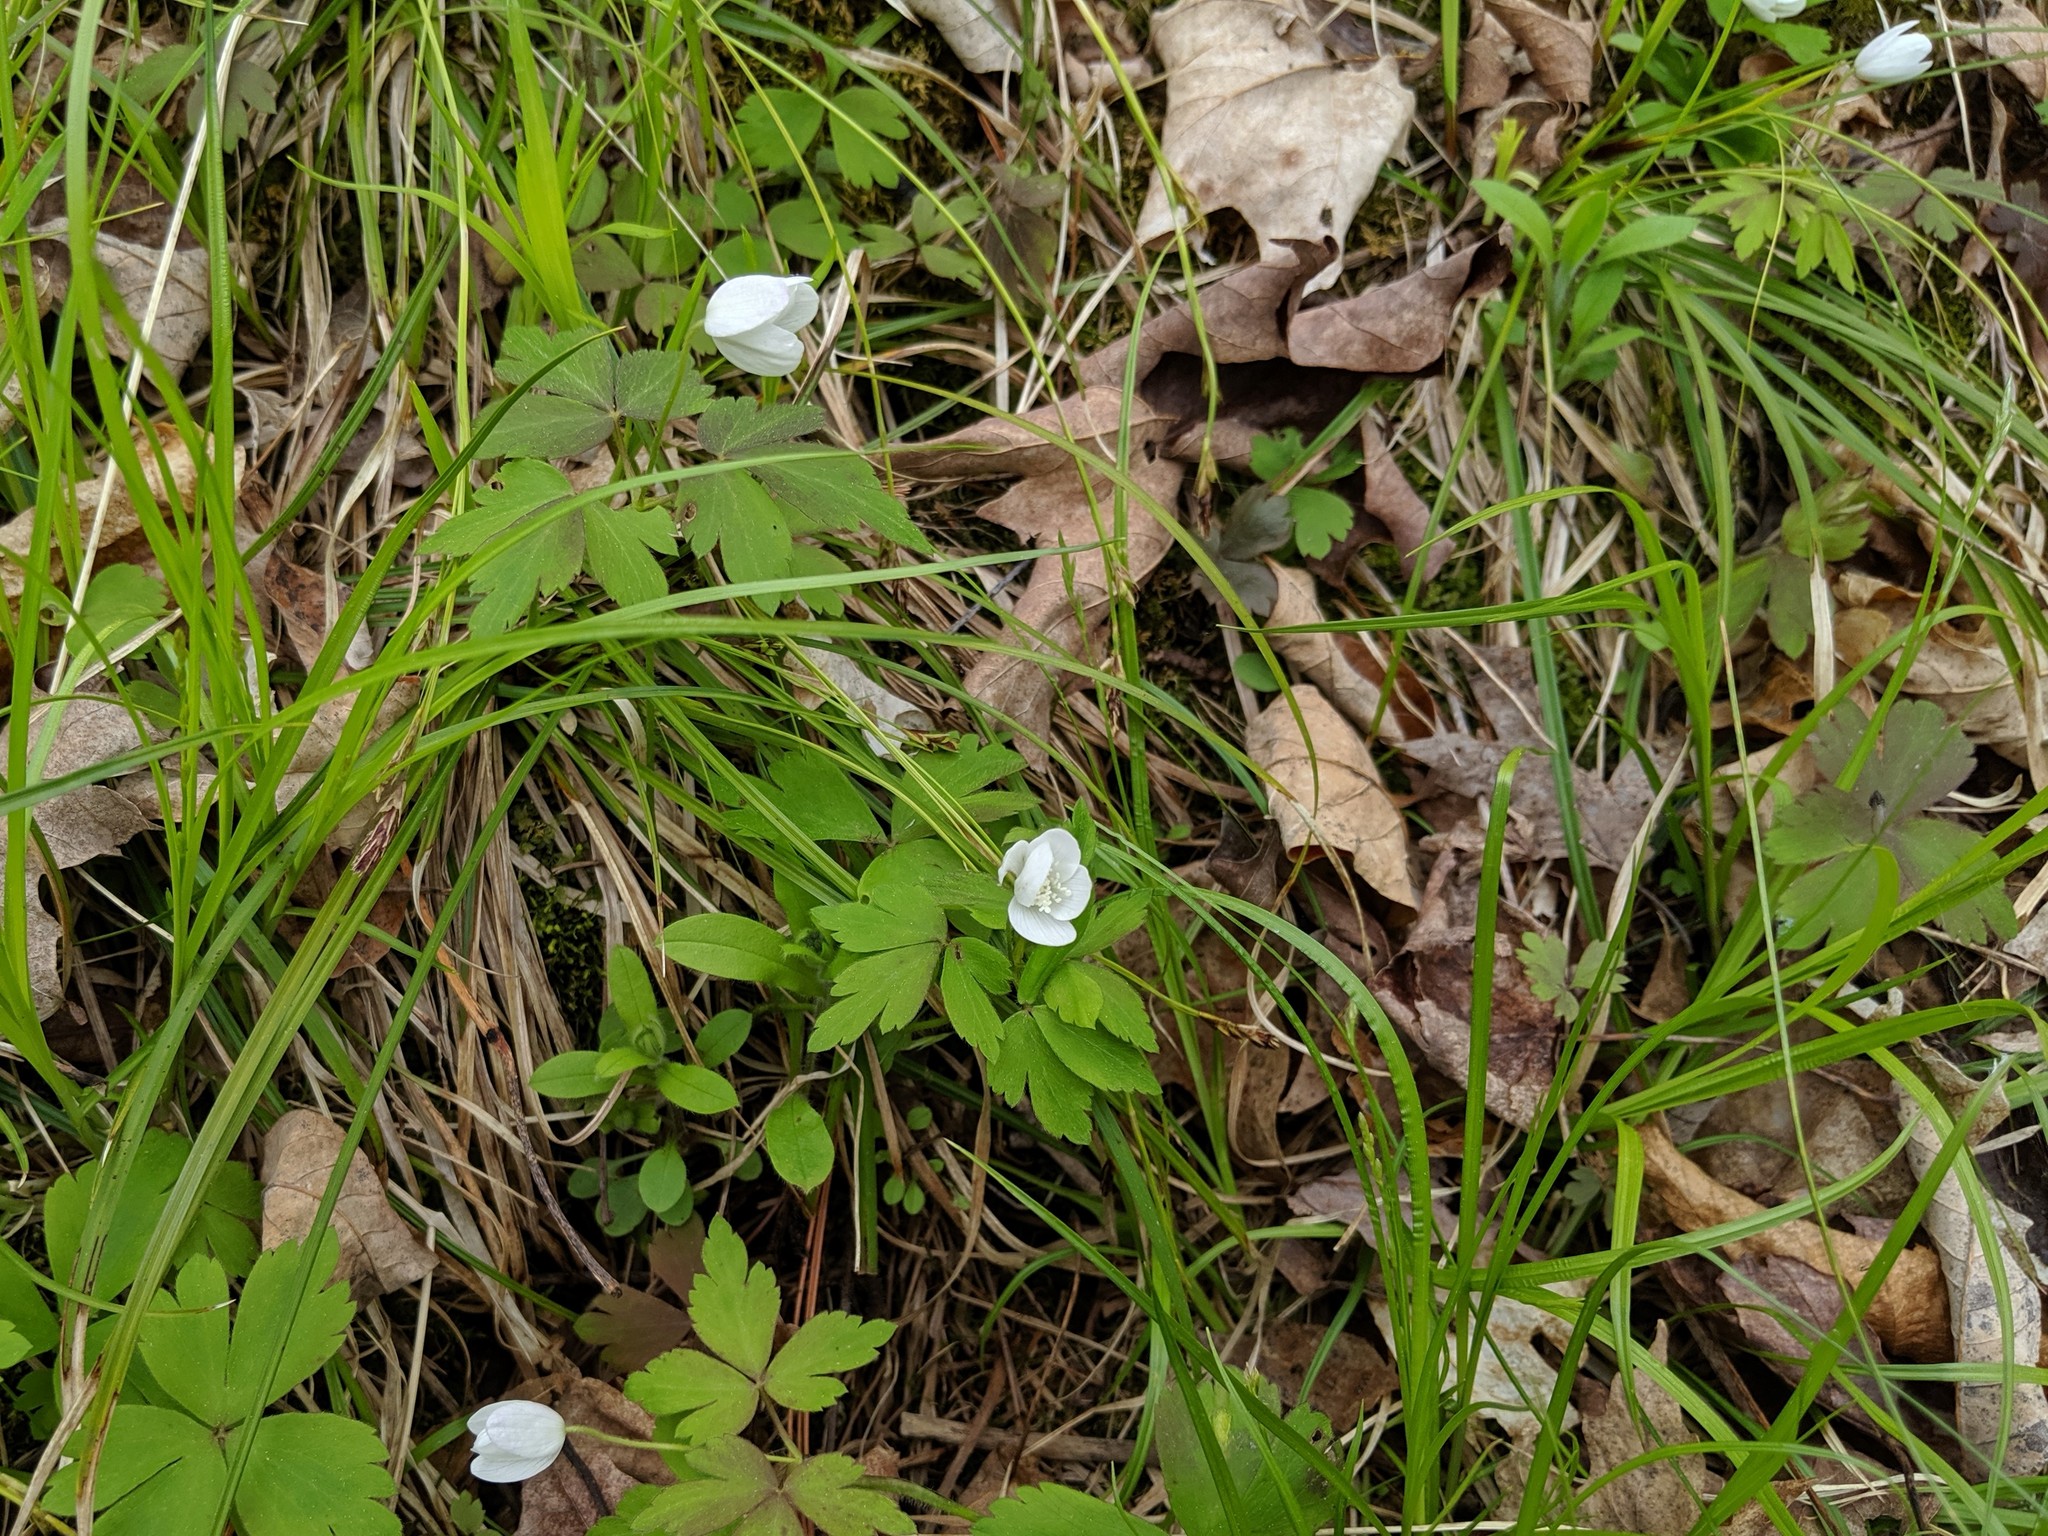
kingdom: Plantae
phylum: Tracheophyta
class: Magnoliopsida
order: Ranunculales
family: Ranunculaceae
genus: Anemone
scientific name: Anemone quinquefolia
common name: Wood anemone
